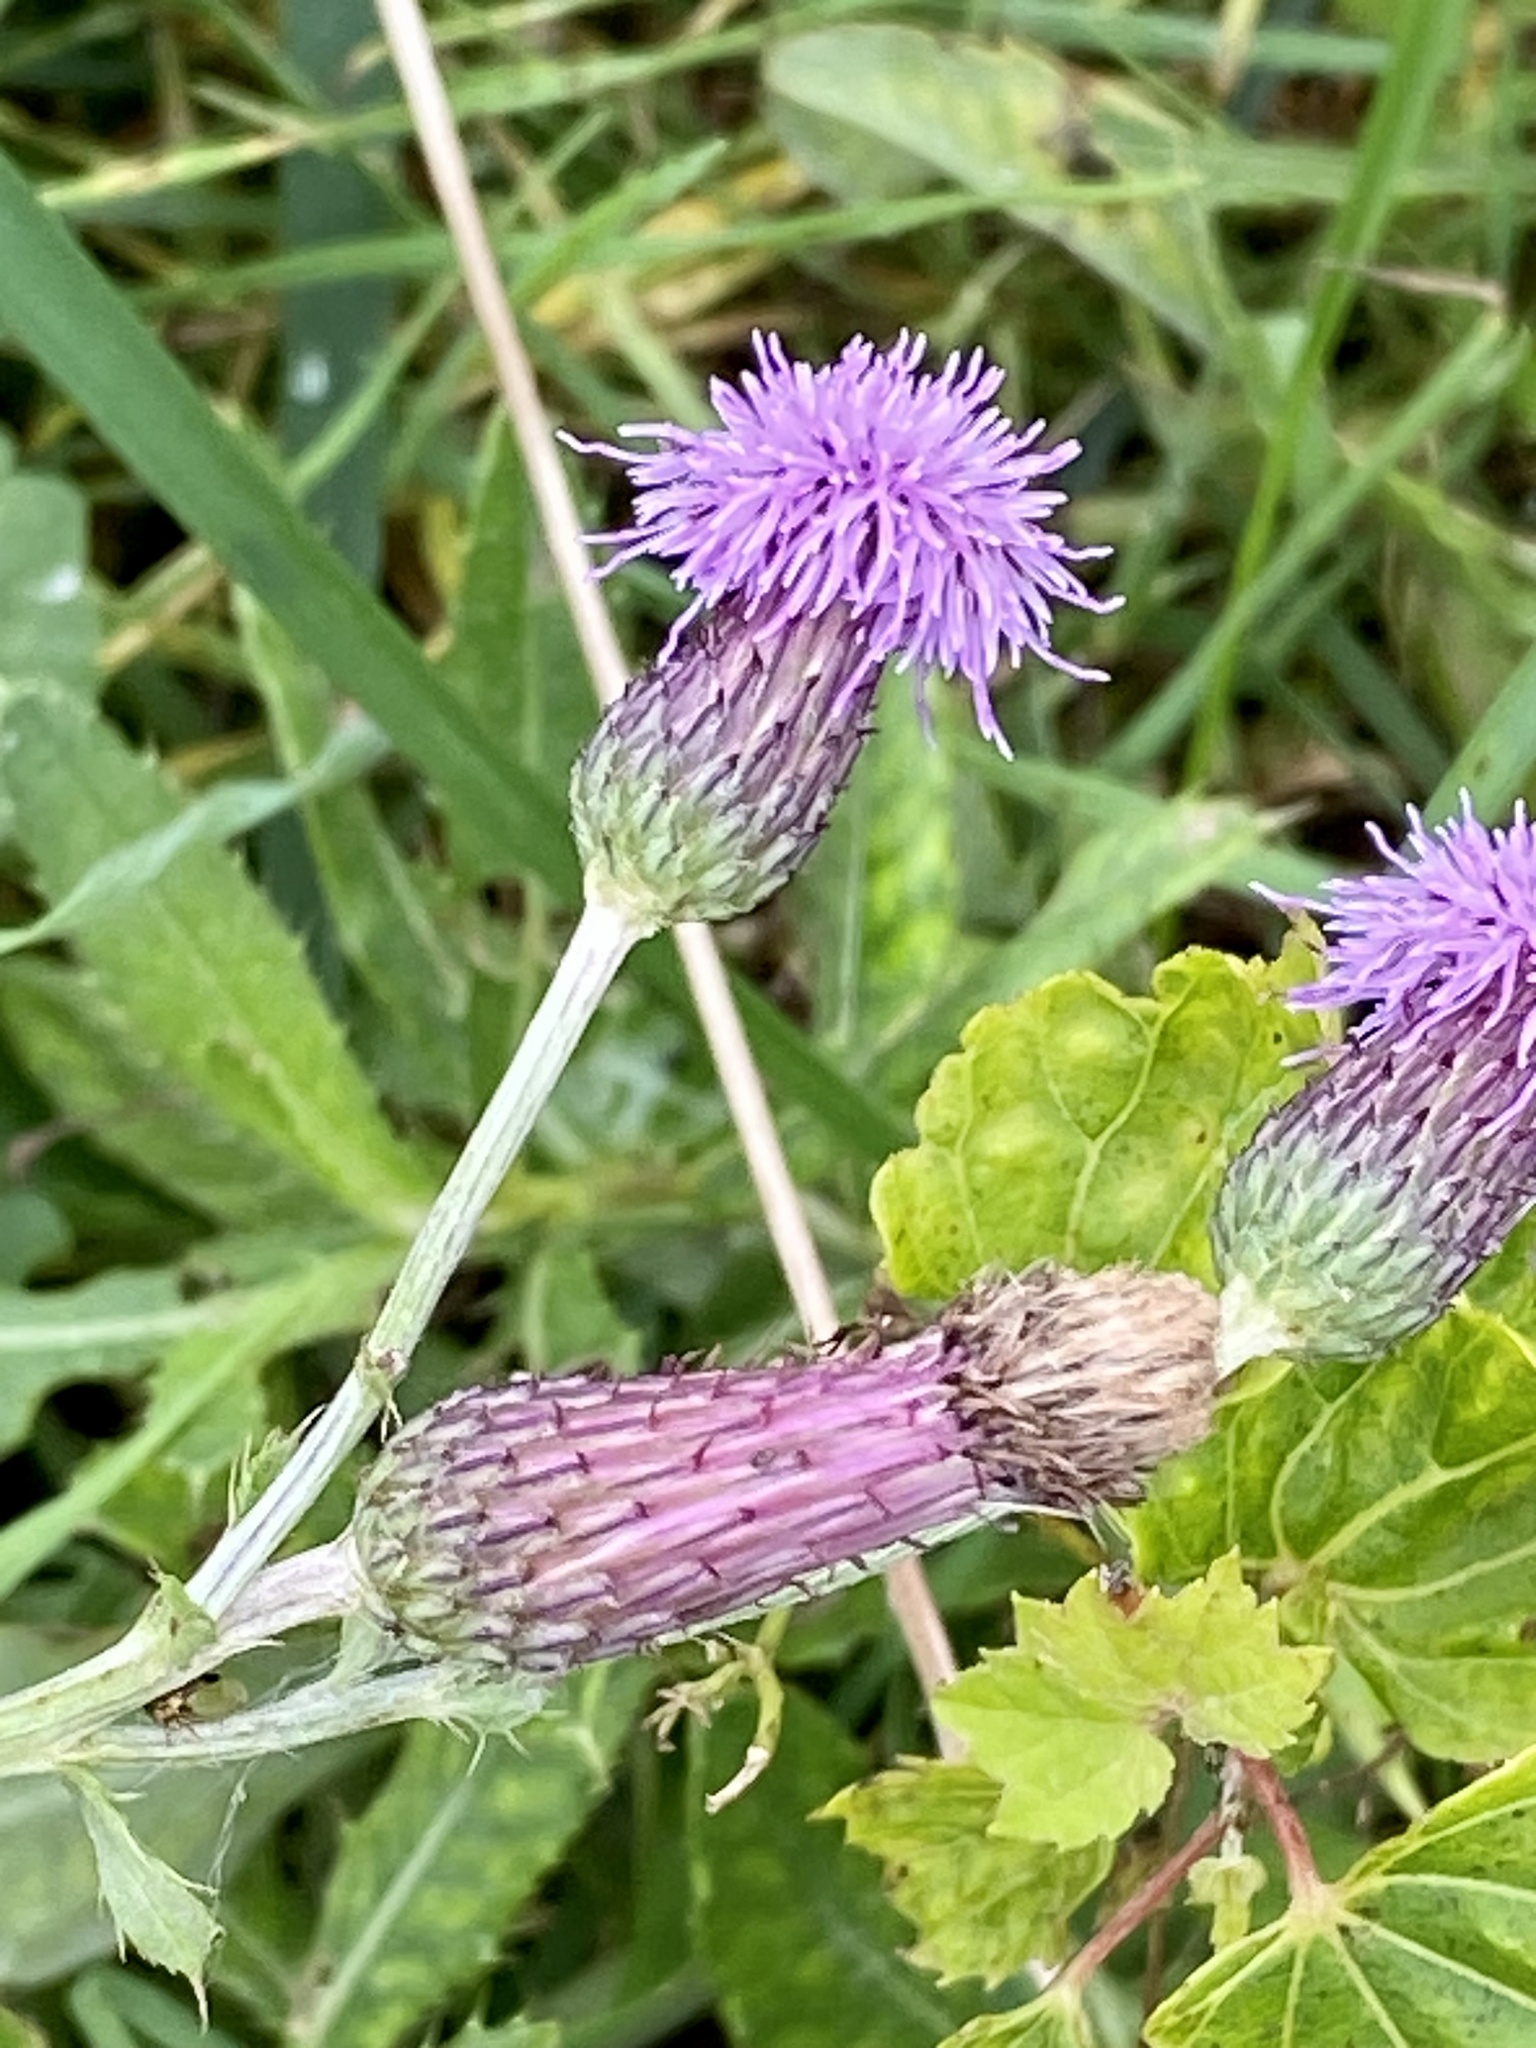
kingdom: Plantae
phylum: Tracheophyta
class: Magnoliopsida
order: Asterales
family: Asteraceae
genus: Cirsium
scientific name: Cirsium arvense
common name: Creeping thistle
